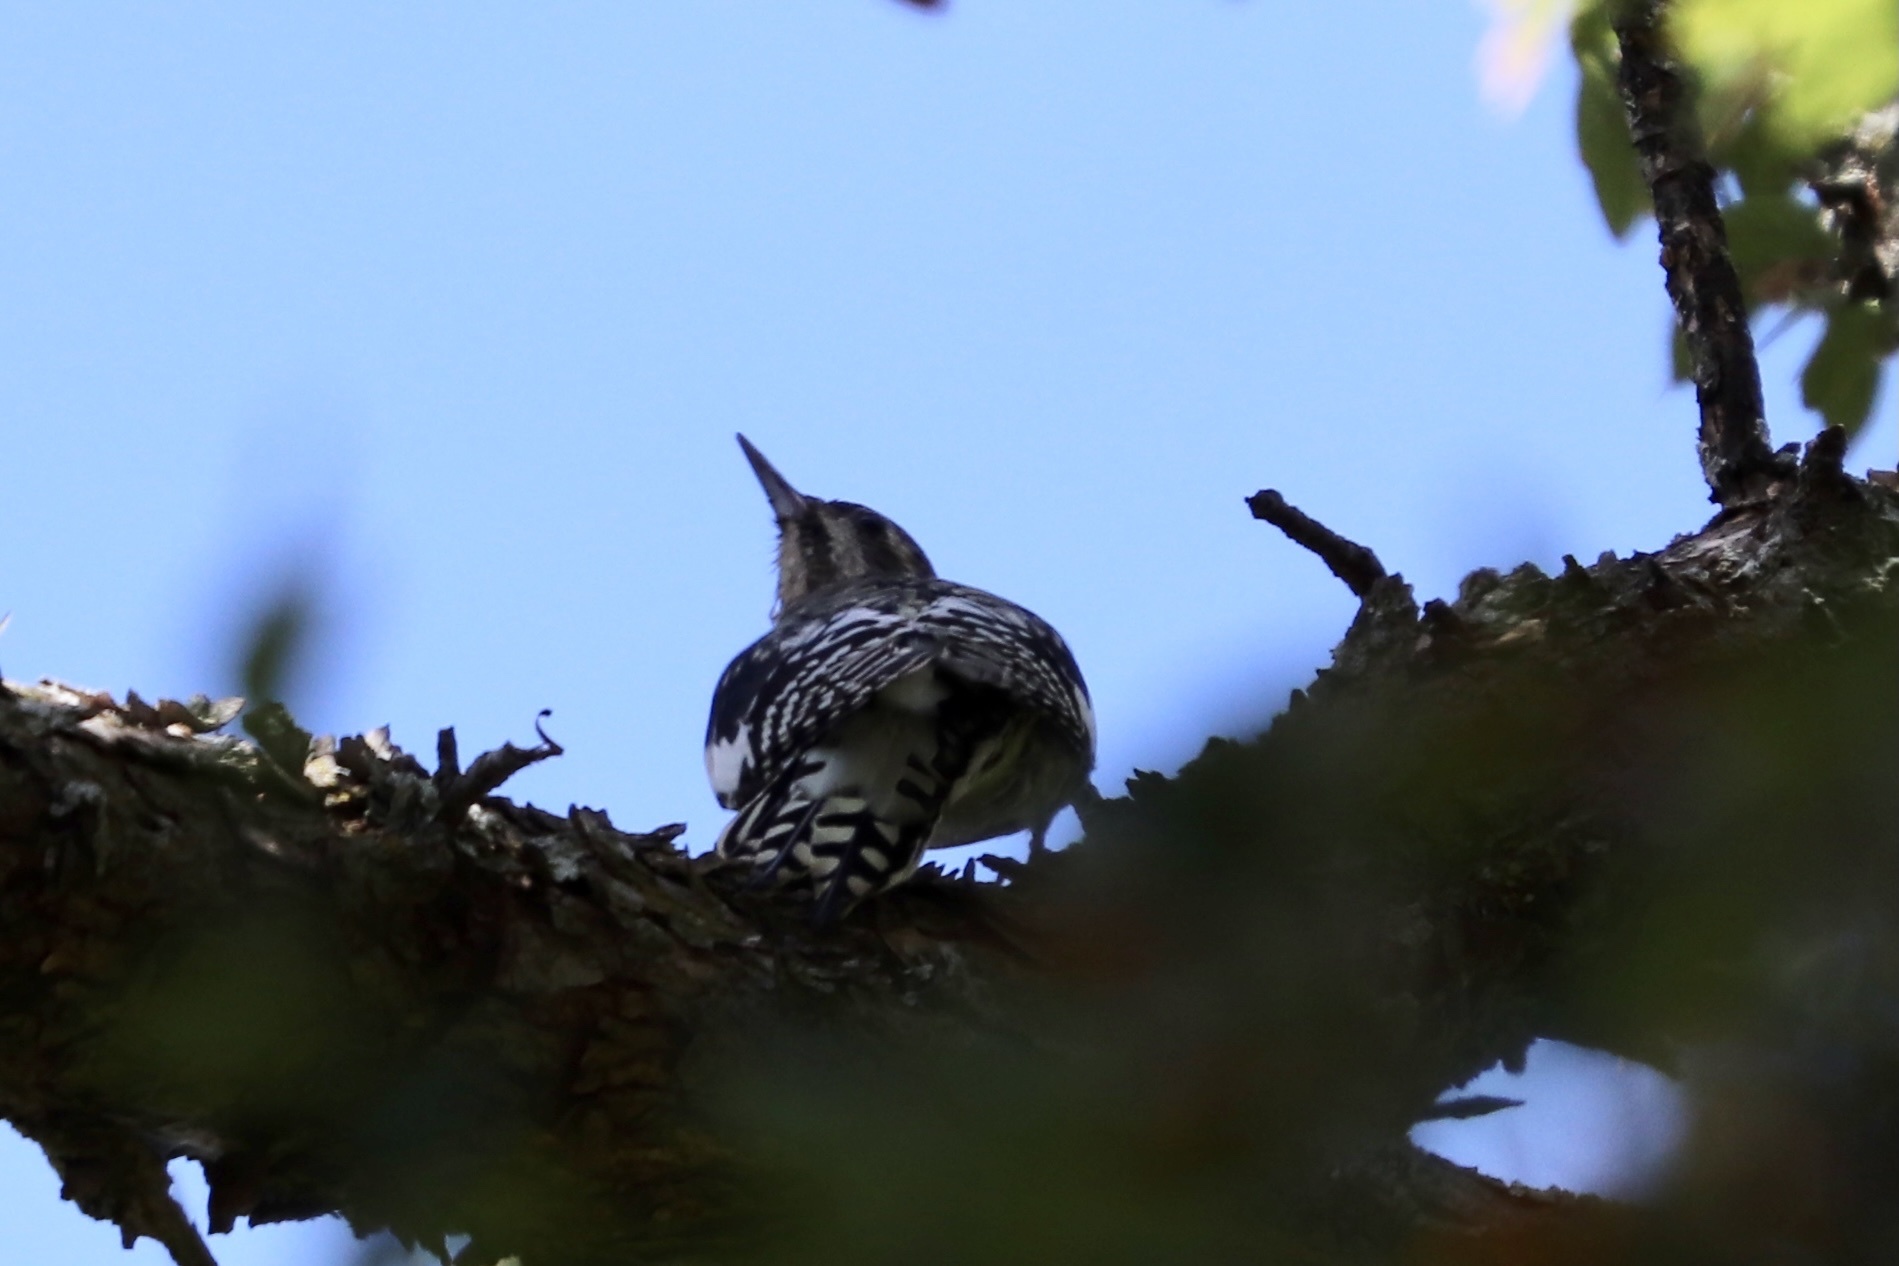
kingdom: Animalia
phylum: Chordata
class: Aves
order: Piciformes
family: Picidae
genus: Sphyrapicus
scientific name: Sphyrapicus varius
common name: Yellow-bellied sapsucker
